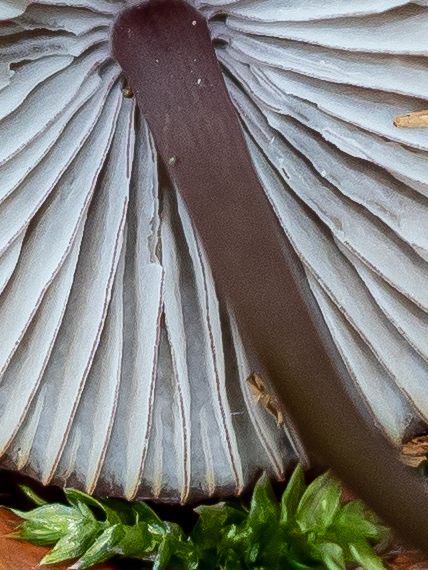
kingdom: Fungi
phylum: Basidiomycota
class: Agaricomycetes
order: Agaricales
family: Mycenaceae
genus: Mycena
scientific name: Mycena purpureofusca
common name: Purple edge bonnet
